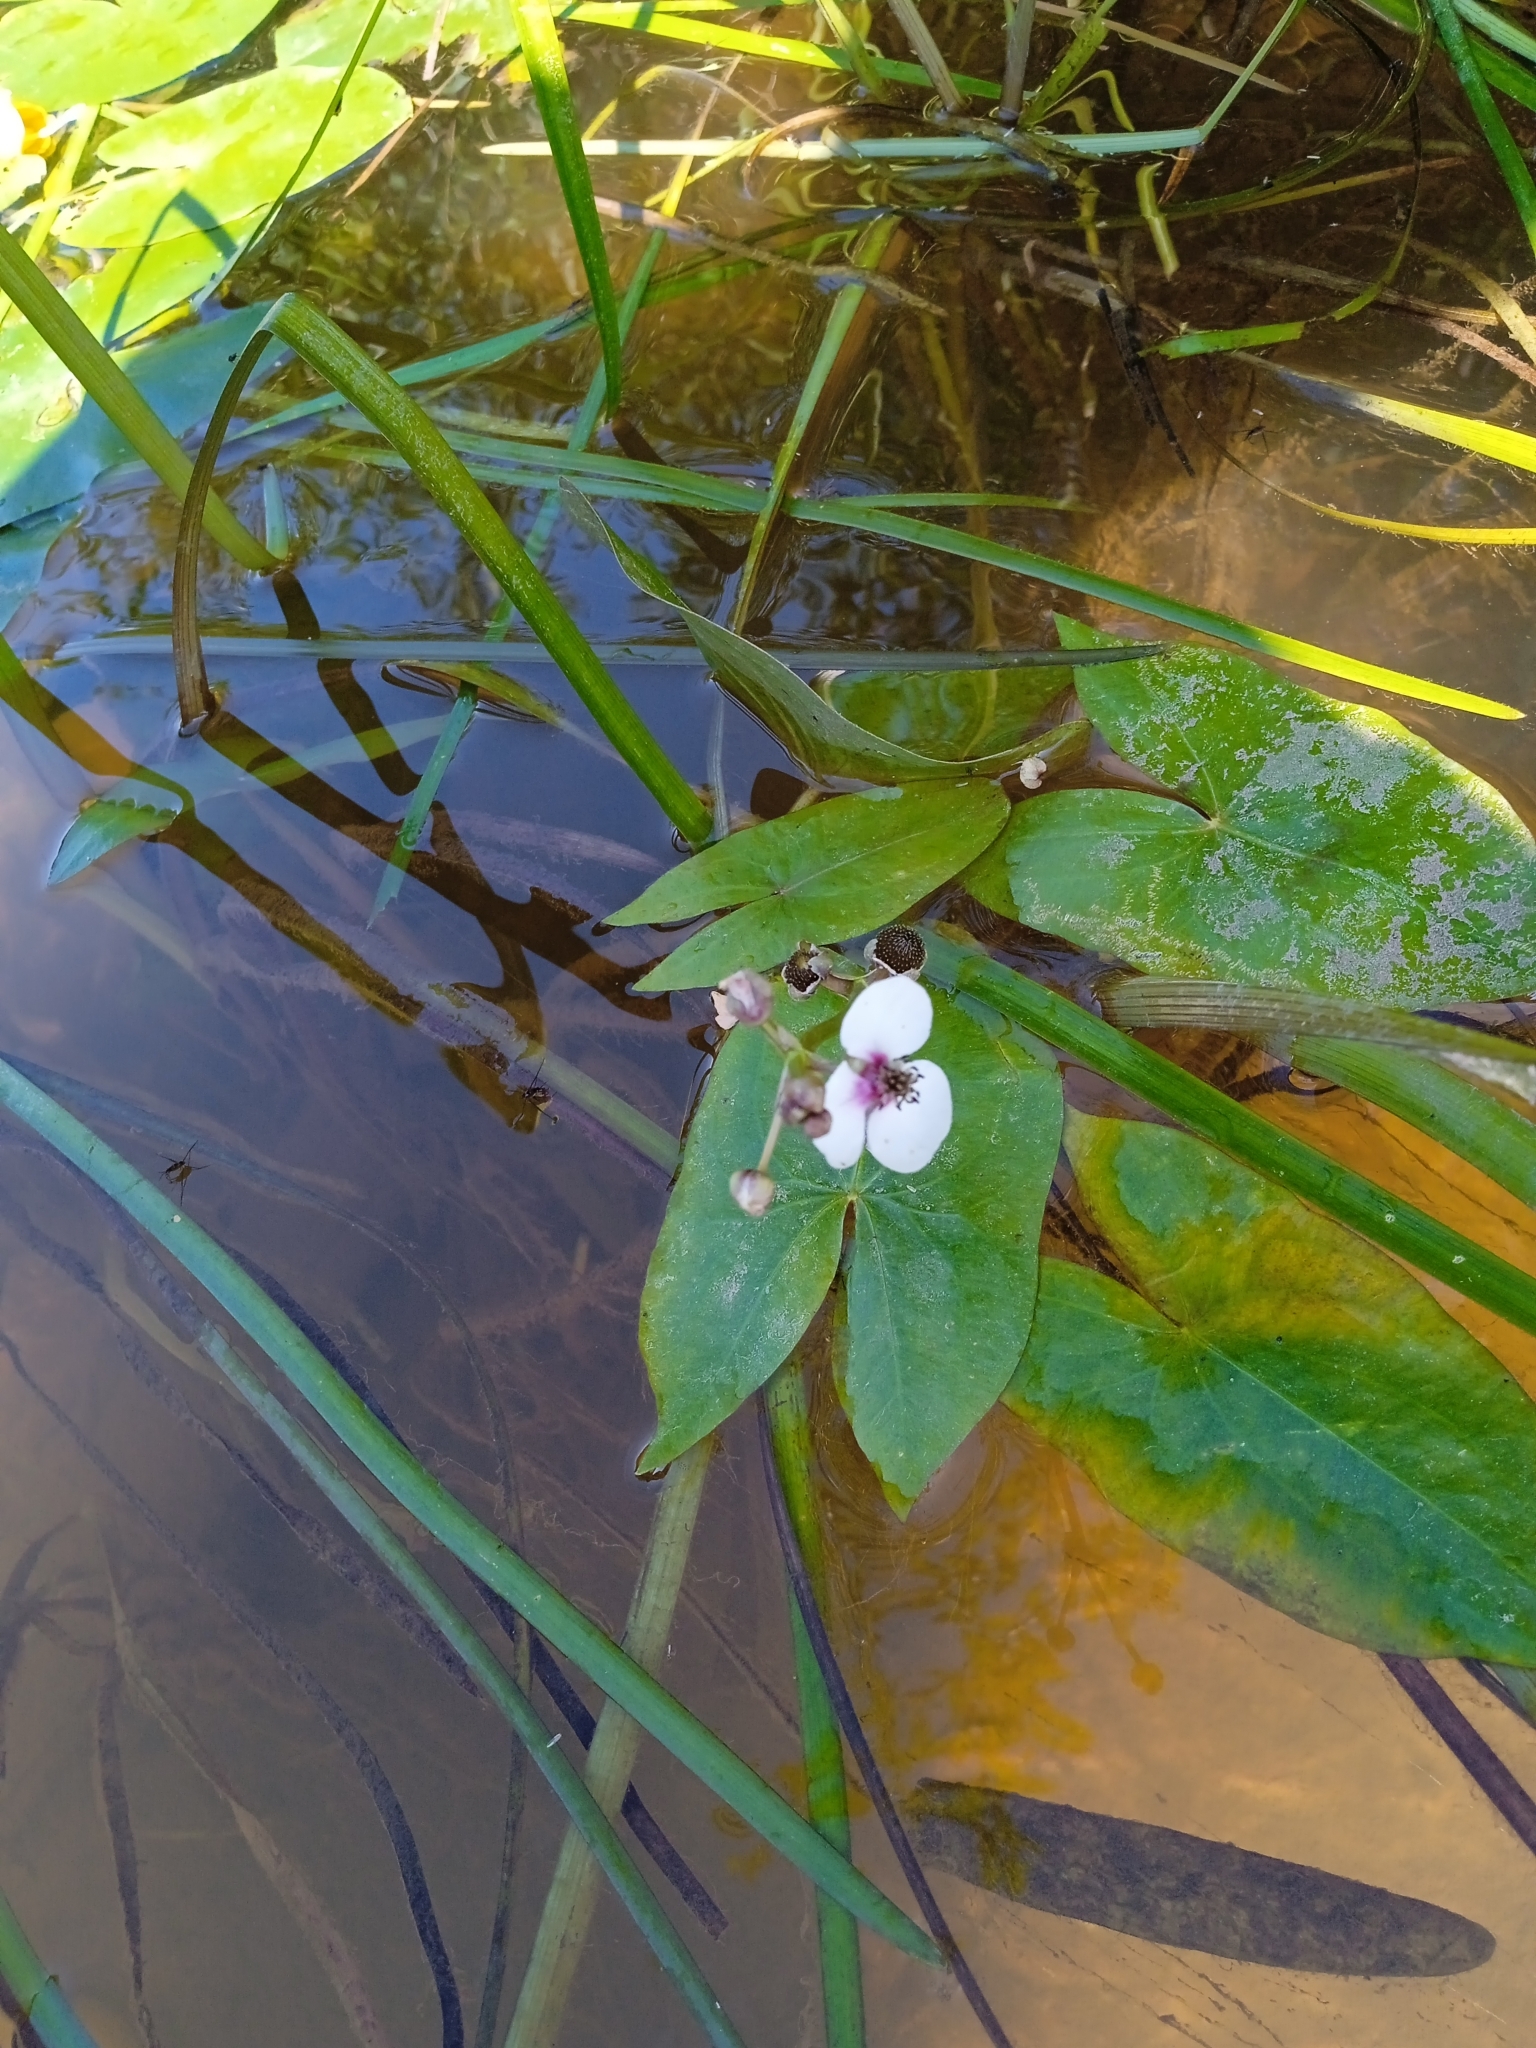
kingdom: Plantae
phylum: Tracheophyta
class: Liliopsida
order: Alismatales
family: Alismataceae
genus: Sagittaria
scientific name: Sagittaria sagittifolia
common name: Arrowhead
